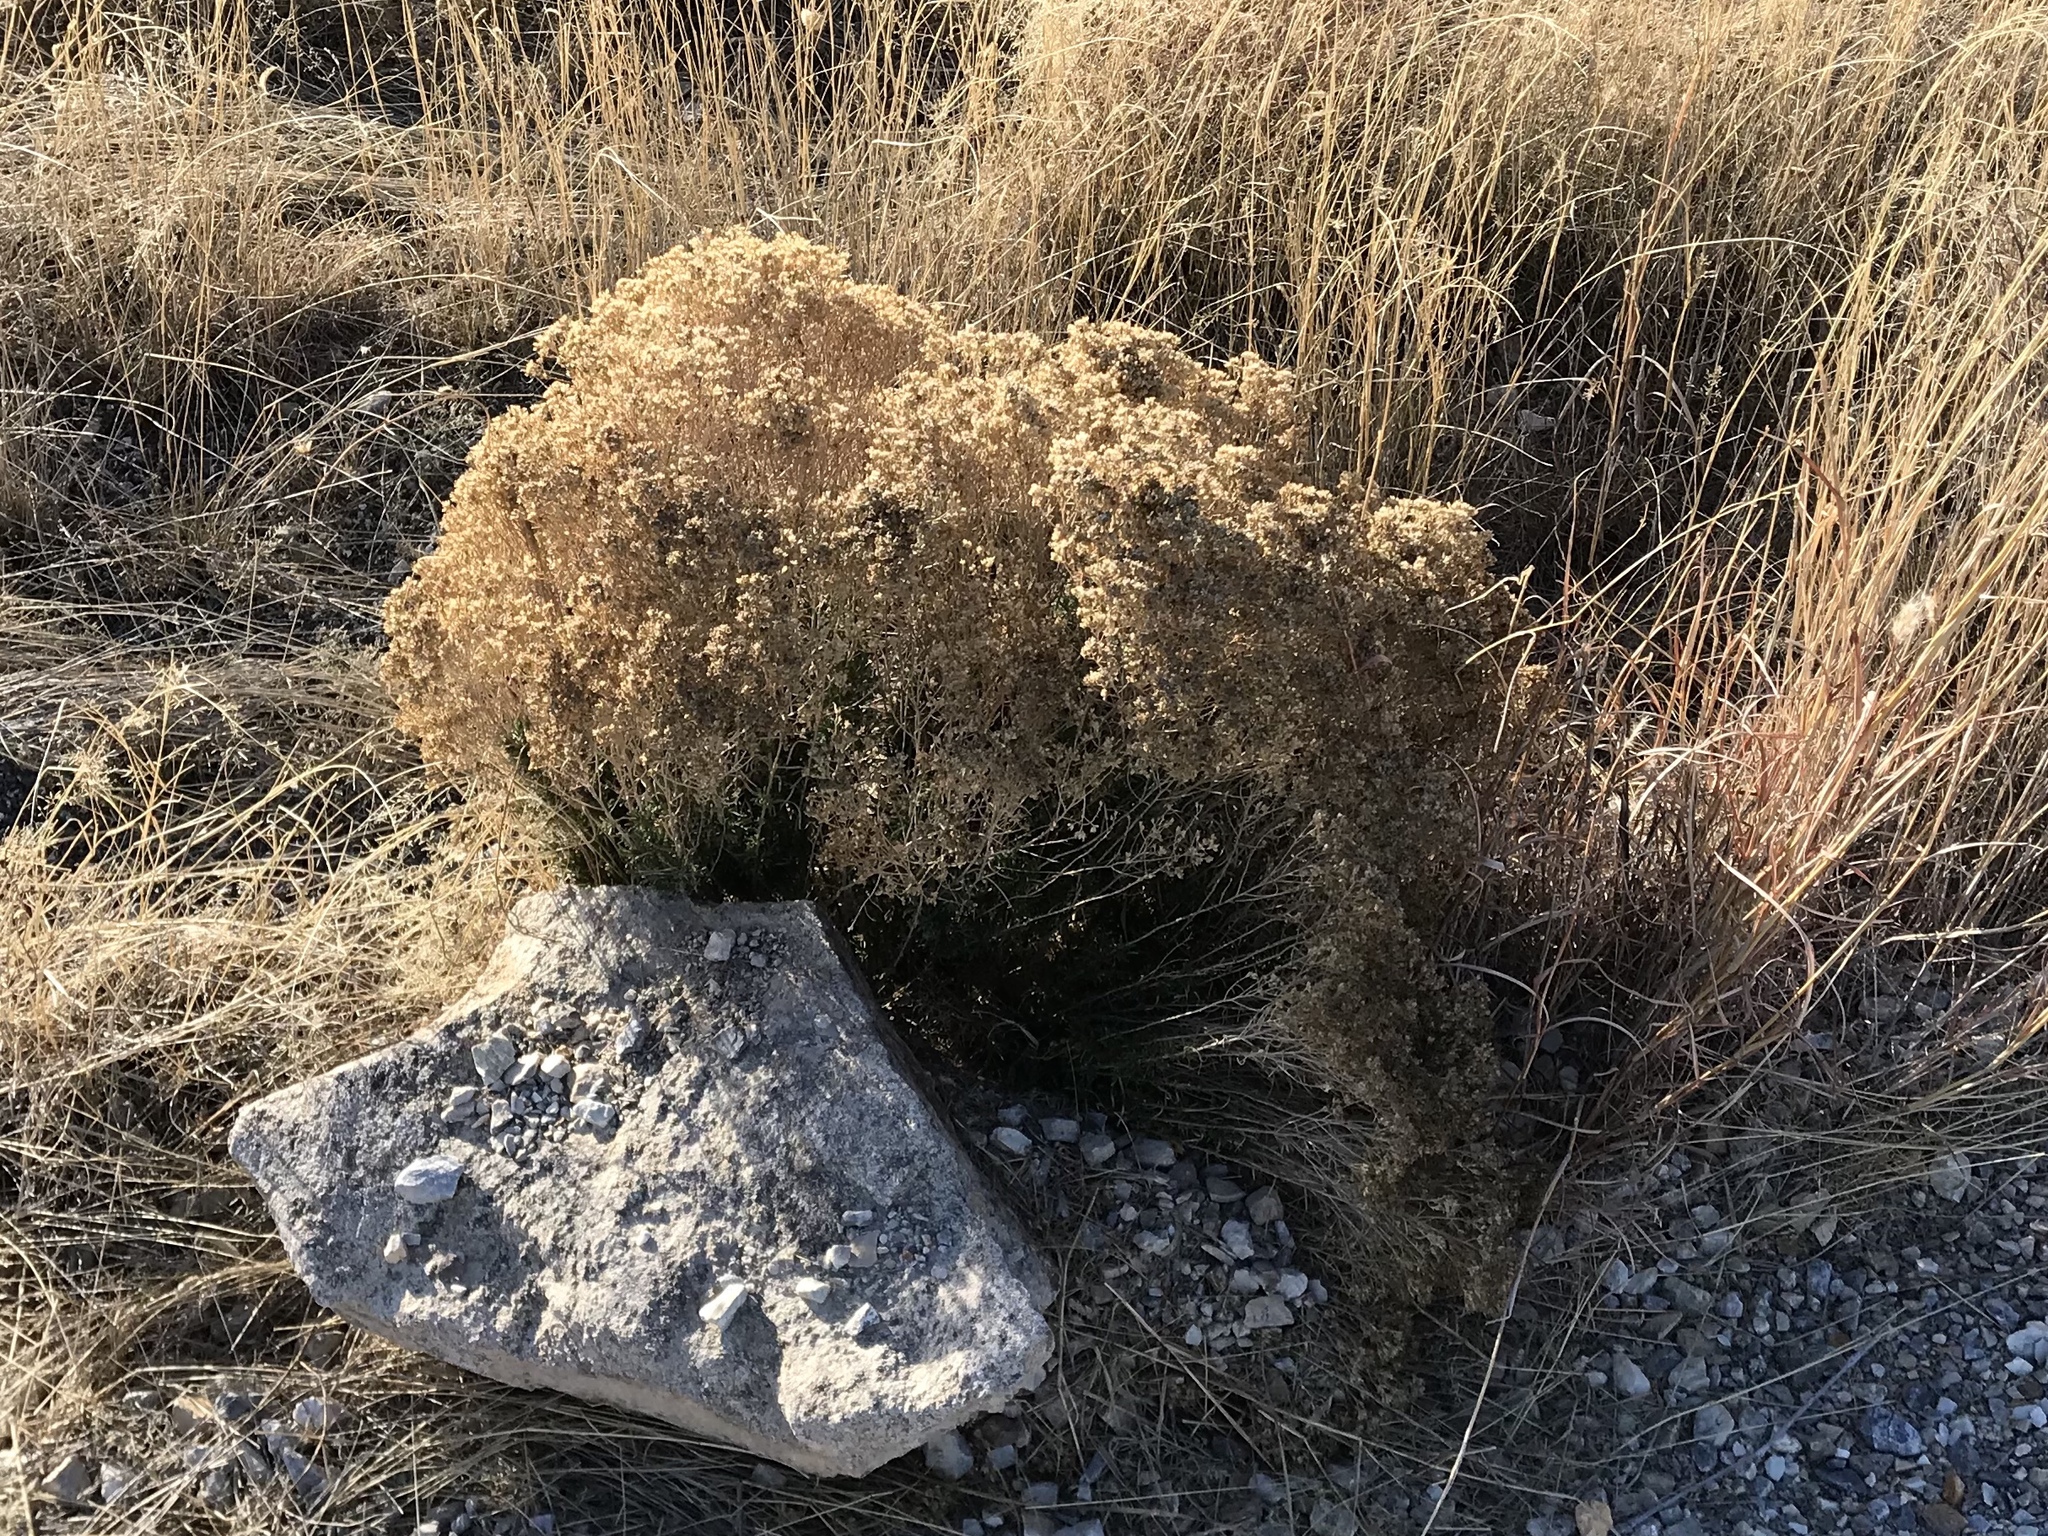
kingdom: Plantae
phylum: Tracheophyta
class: Magnoliopsida
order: Asterales
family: Asteraceae
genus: Gutierrezia
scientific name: Gutierrezia sarothrae
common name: Broom snakeweed
